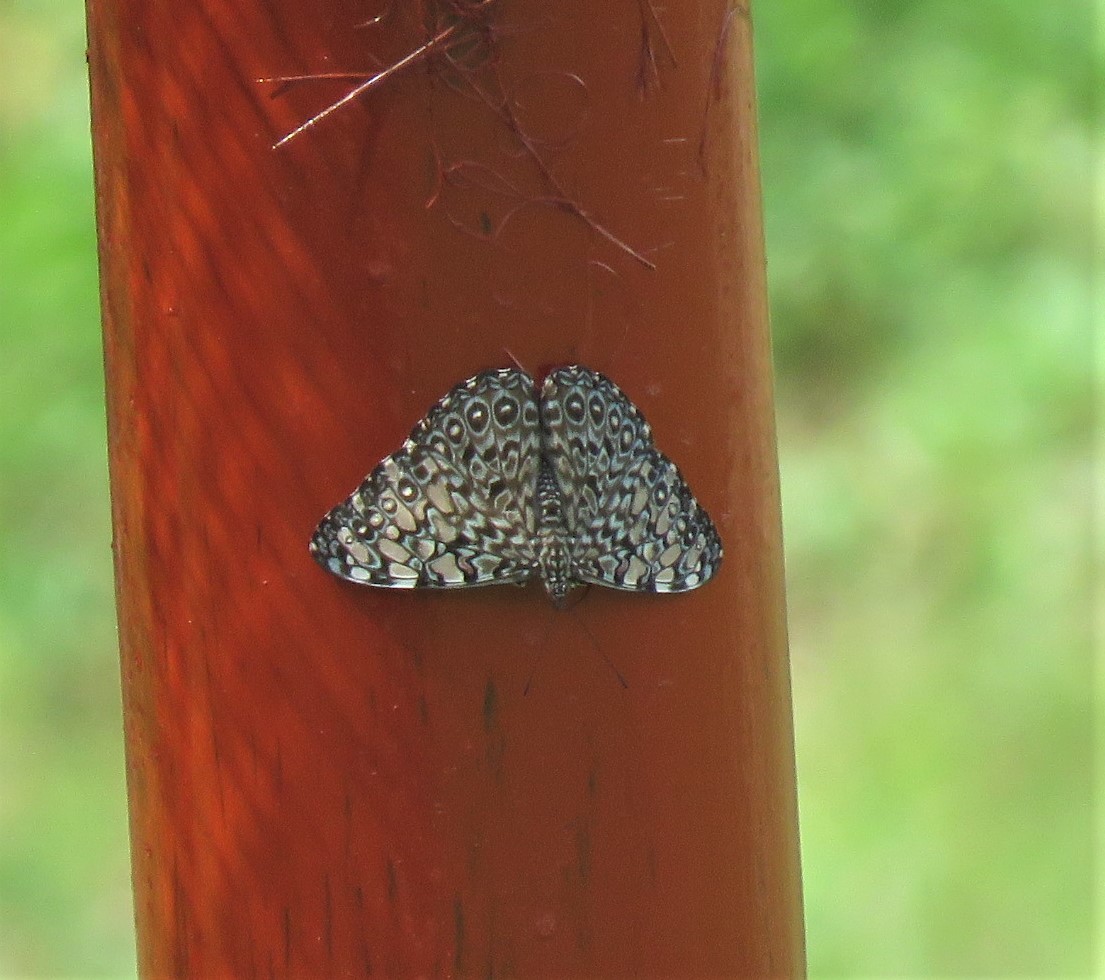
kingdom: Animalia
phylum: Arthropoda
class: Insecta
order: Lepidoptera
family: Nymphalidae
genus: Hamadryas
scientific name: Hamadryas feronia
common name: Variable cracker
